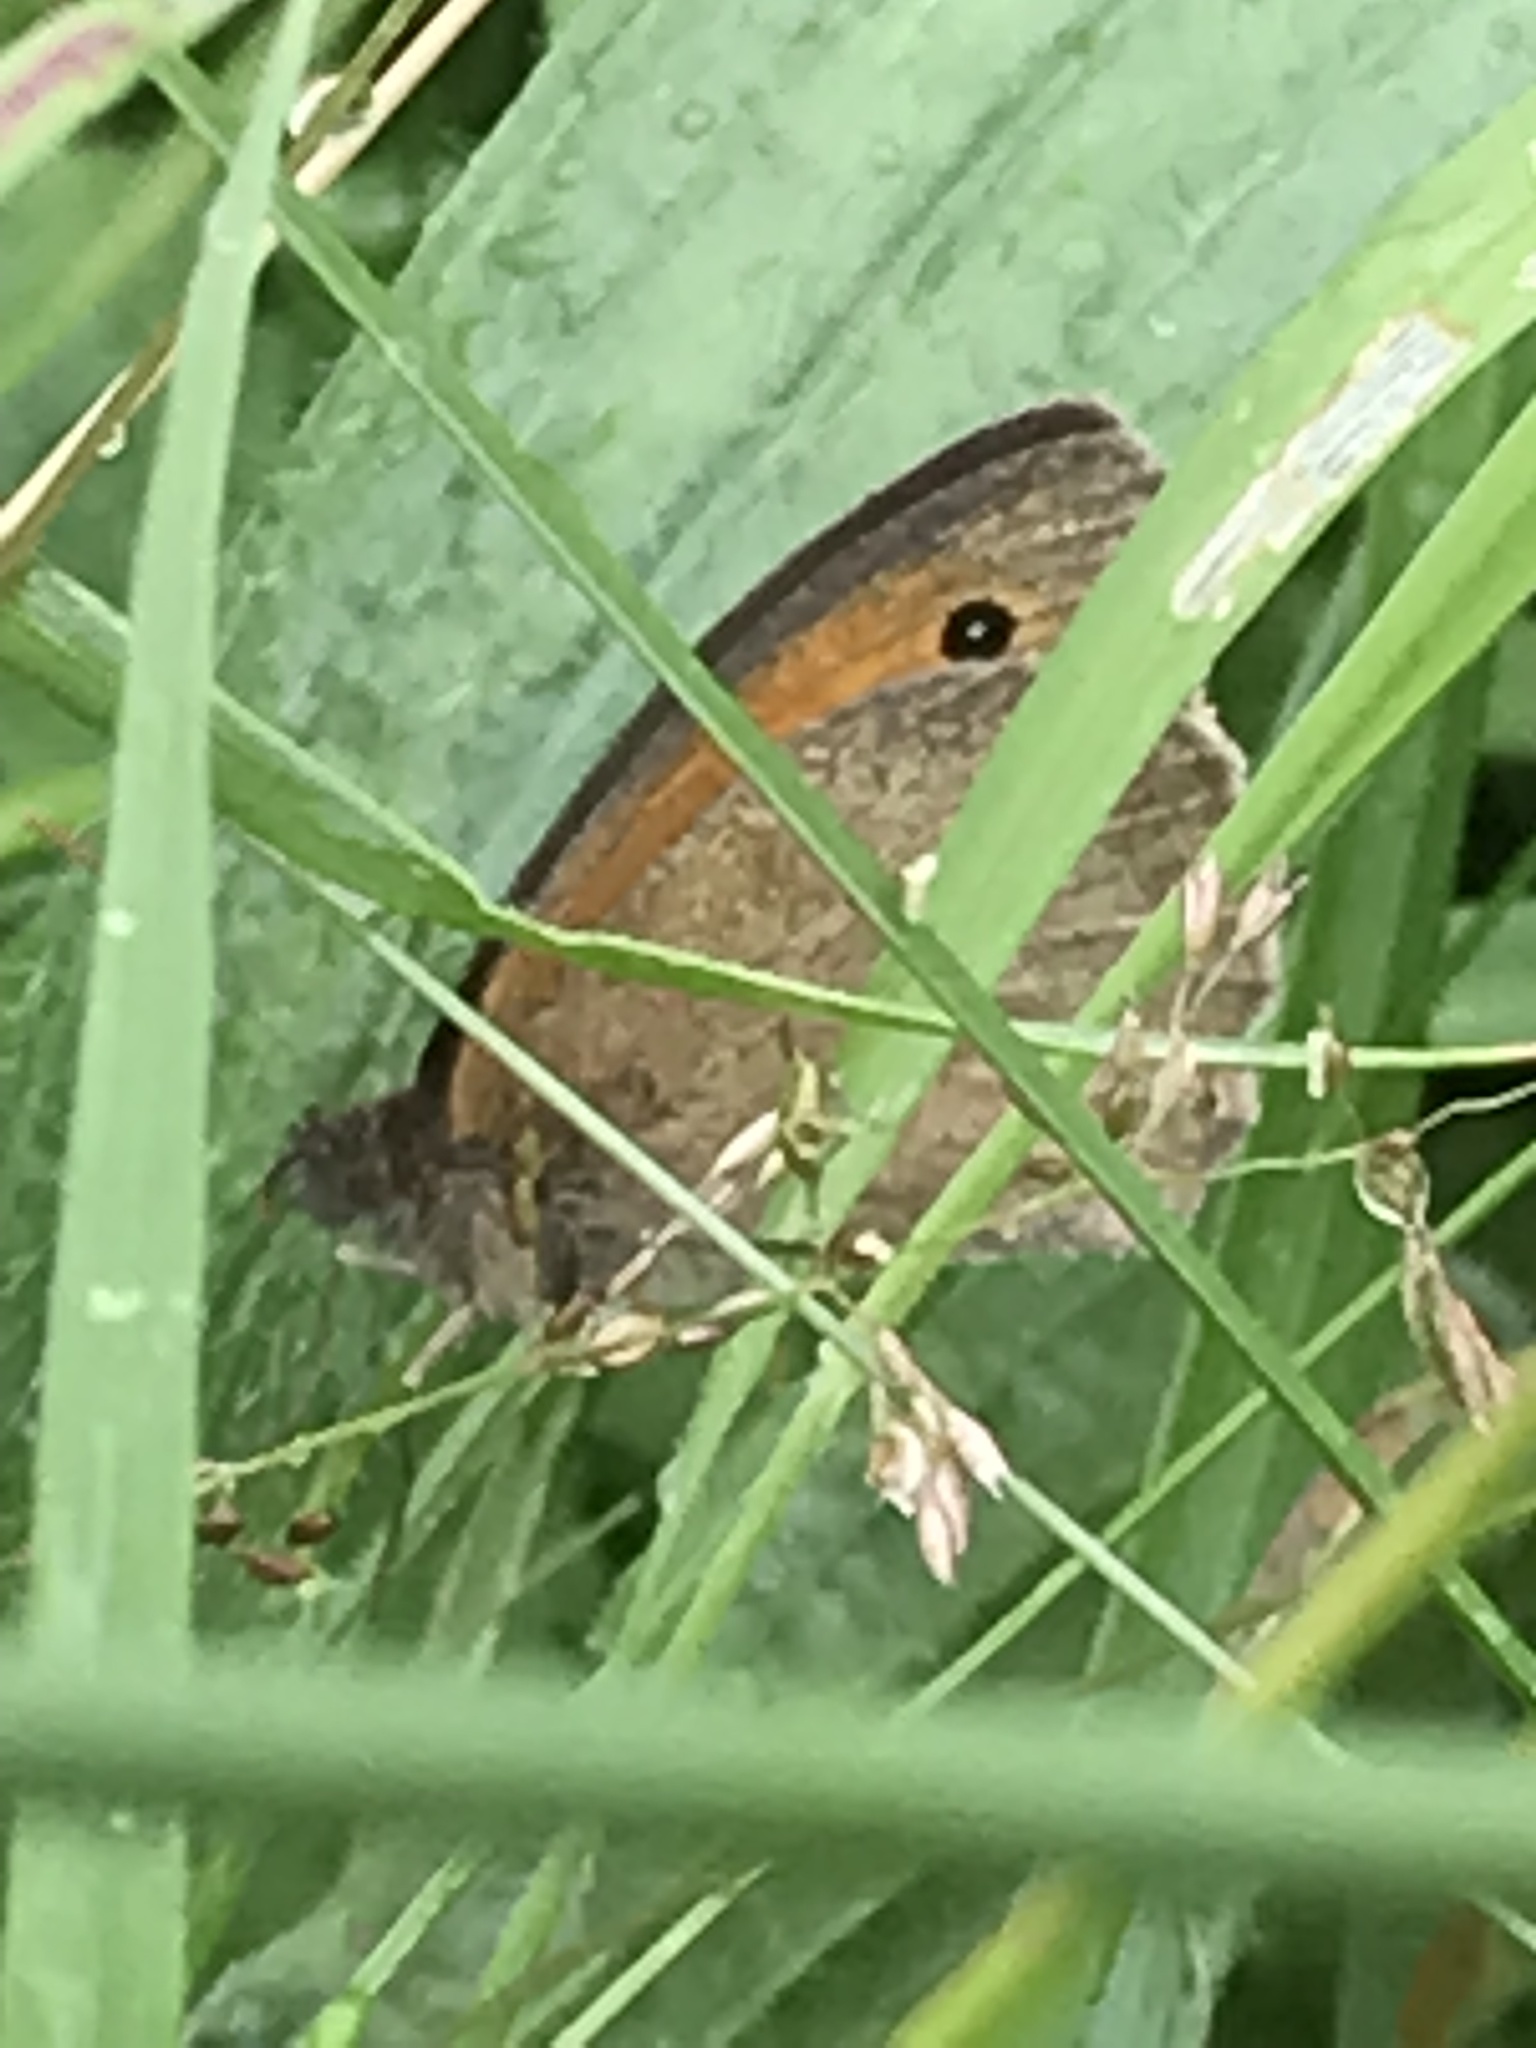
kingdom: Animalia
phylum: Arthropoda
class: Insecta
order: Lepidoptera
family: Nymphalidae
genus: Maniola
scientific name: Maniola jurtina
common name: Meadow brown
